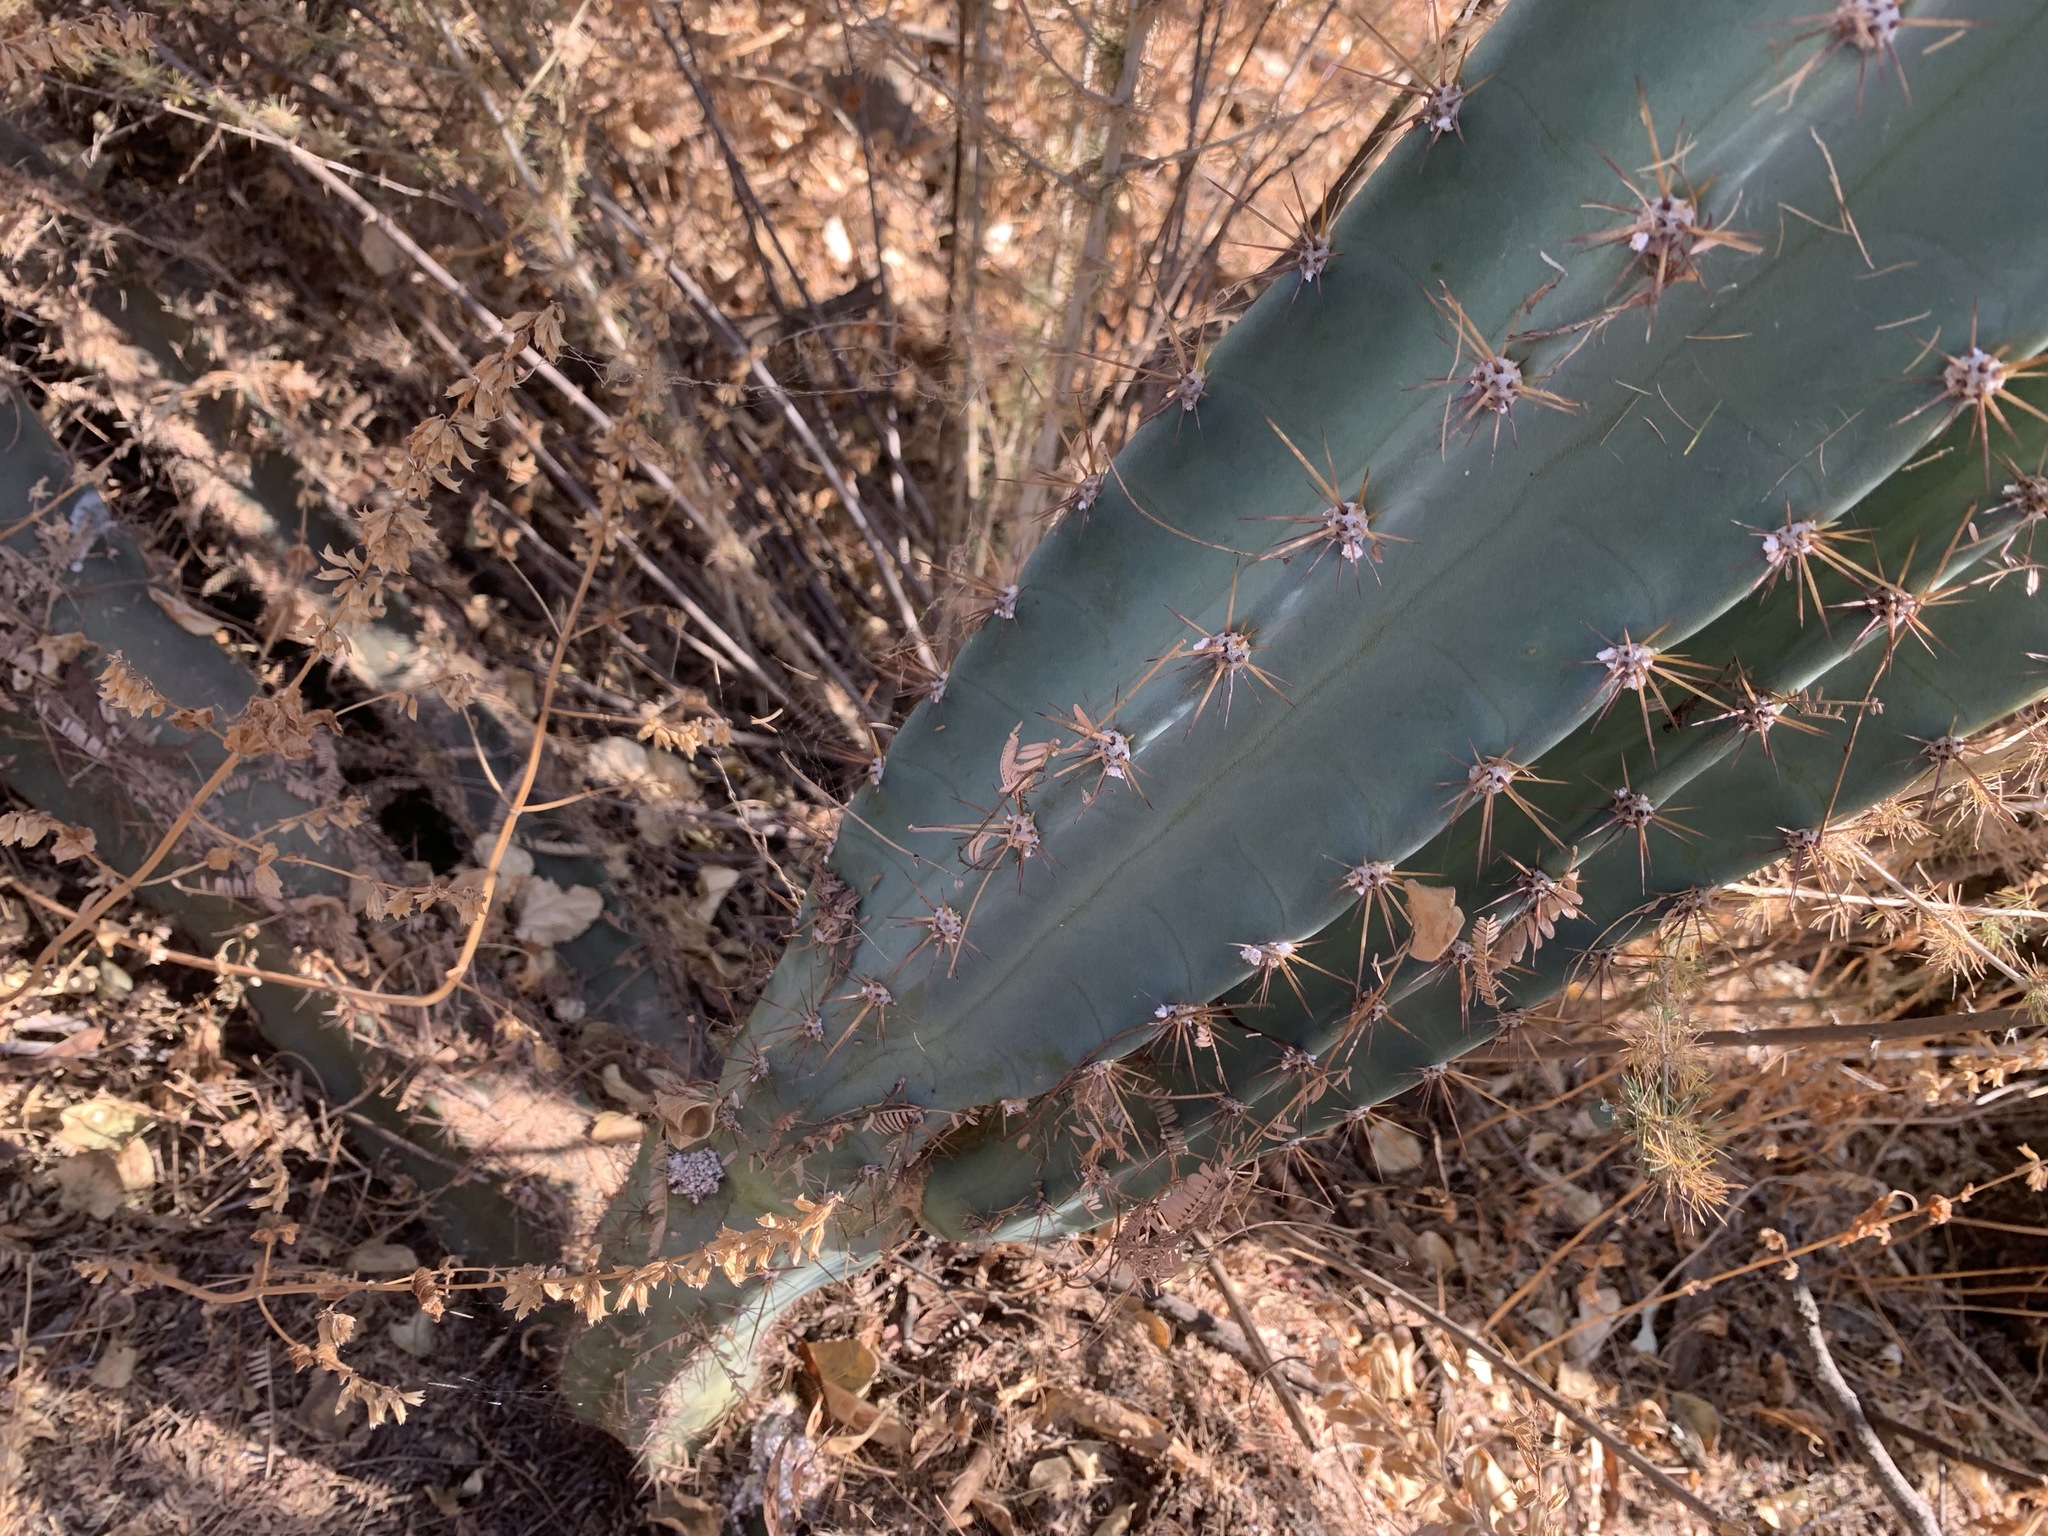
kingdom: Plantae
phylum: Tracheophyta
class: Magnoliopsida
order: Caryophyllales
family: Cactaceae
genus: Cereus
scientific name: Cereus jamacaru
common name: Queen-of-the-night
